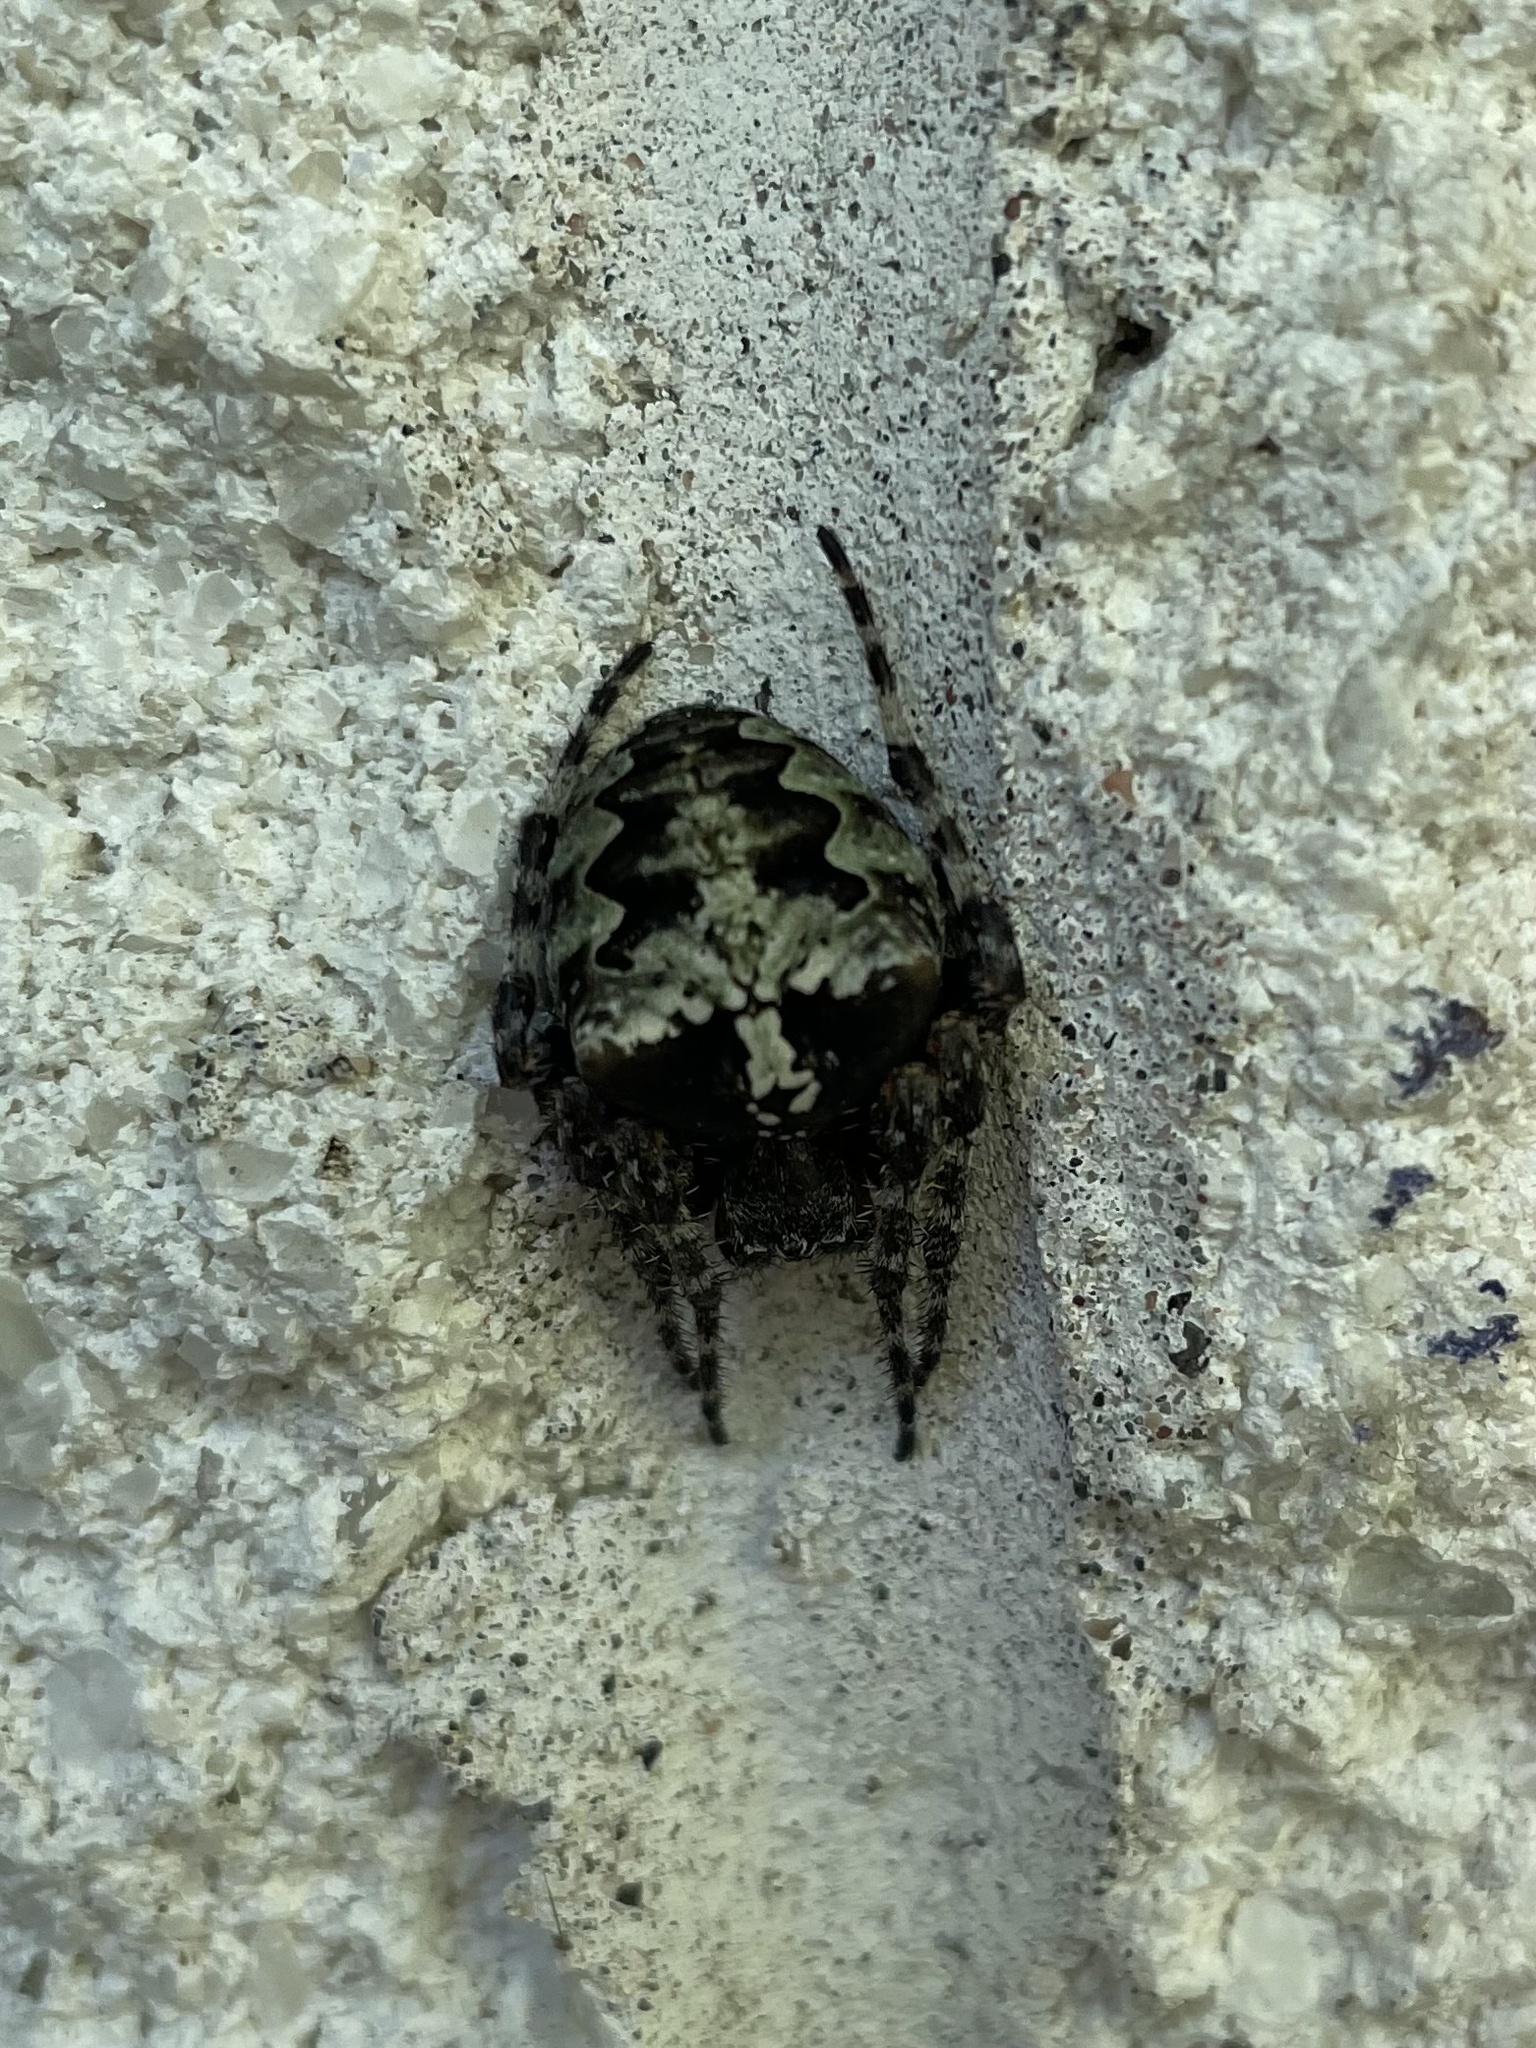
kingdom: Animalia
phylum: Arthropoda
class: Arachnida
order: Araneae
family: Araneidae
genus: Araneus
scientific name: Araneus bicentenarius
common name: Giant lichen orbweaver
